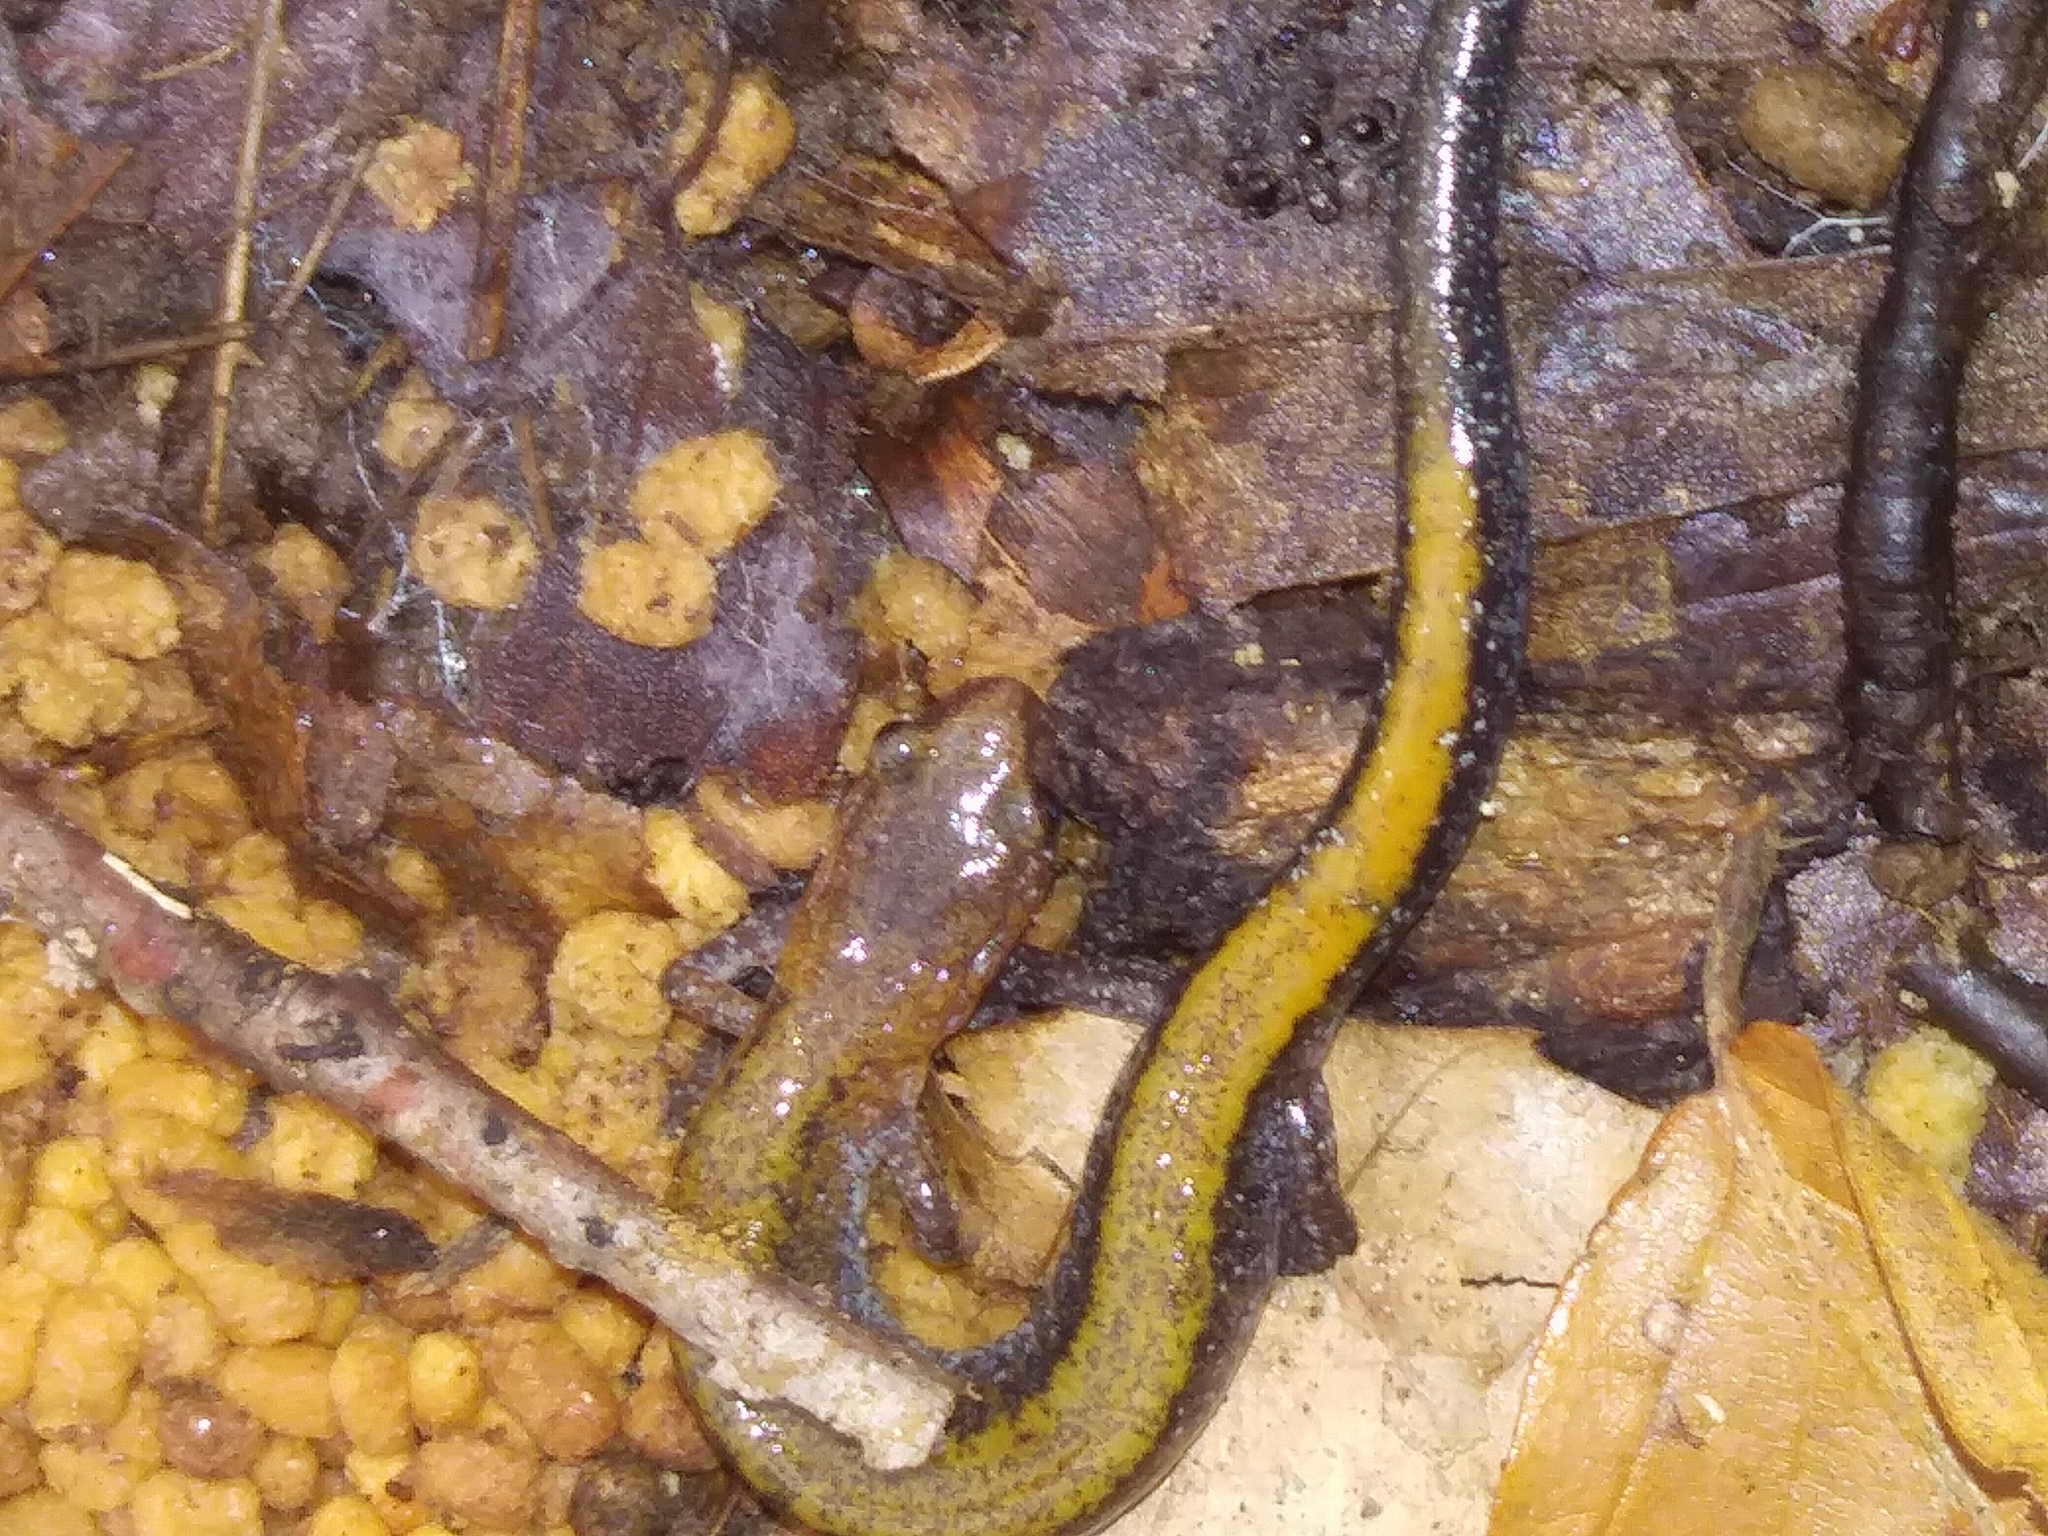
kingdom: Animalia
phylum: Chordata
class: Amphibia
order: Caudata
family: Plethodontidae
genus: Plethodon
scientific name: Plethodon cinereus
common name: Redback salamander
